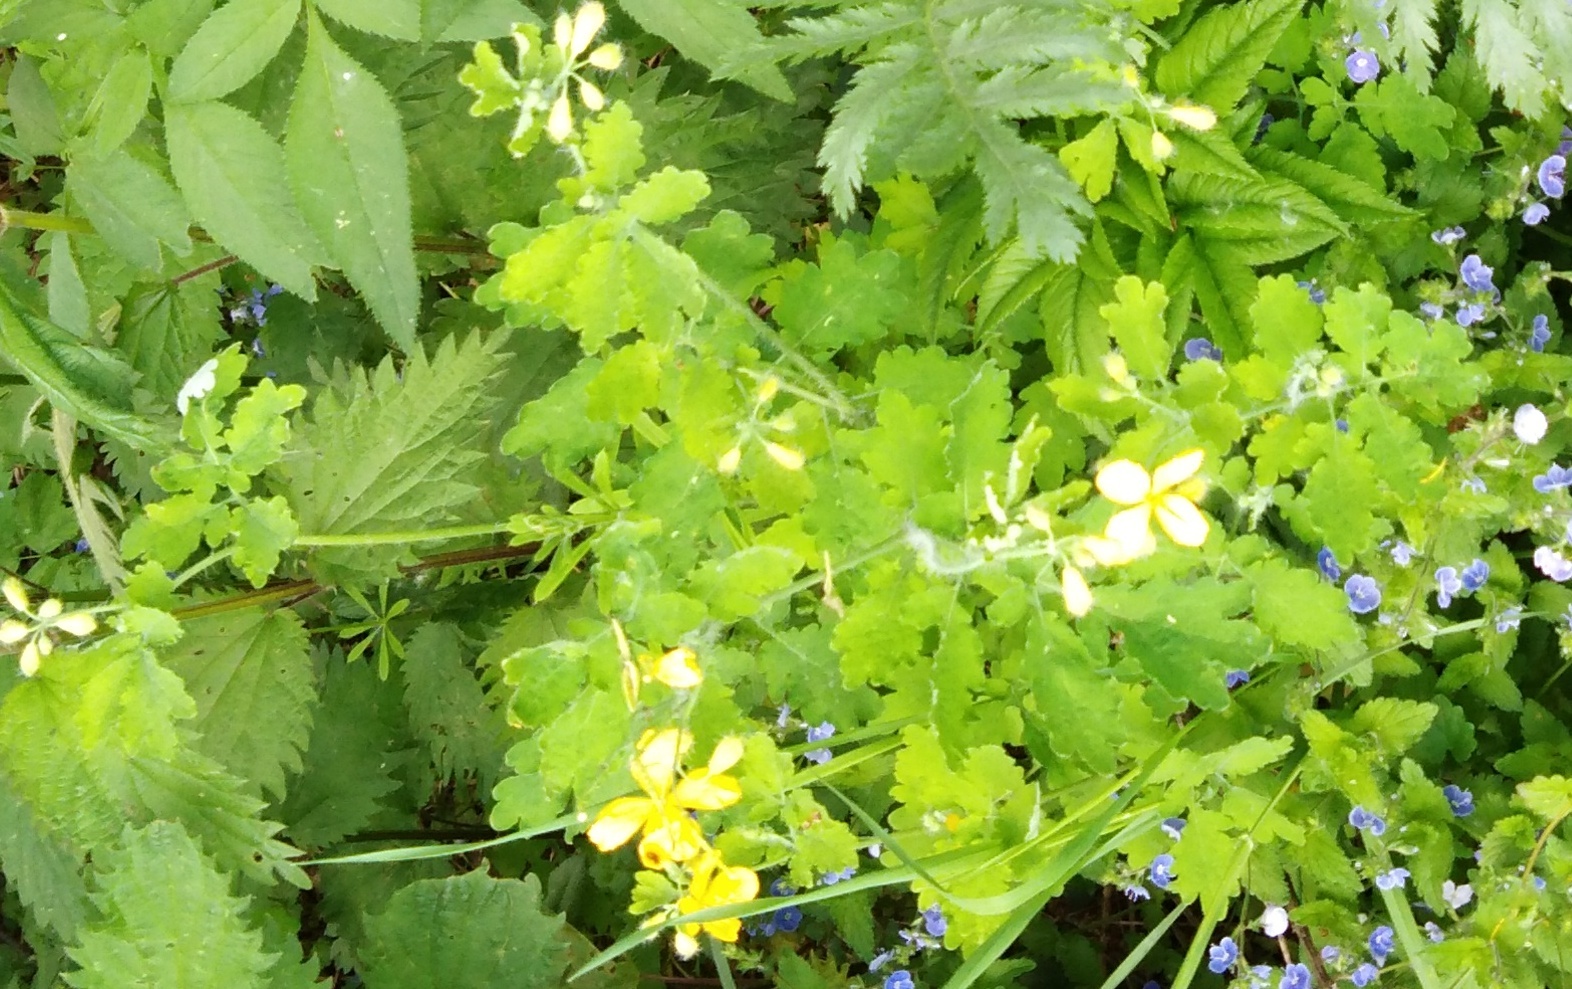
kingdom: Plantae
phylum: Tracheophyta
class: Magnoliopsida
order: Ranunculales
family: Papaveraceae
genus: Chelidonium
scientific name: Chelidonium majus
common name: Greater celandine
